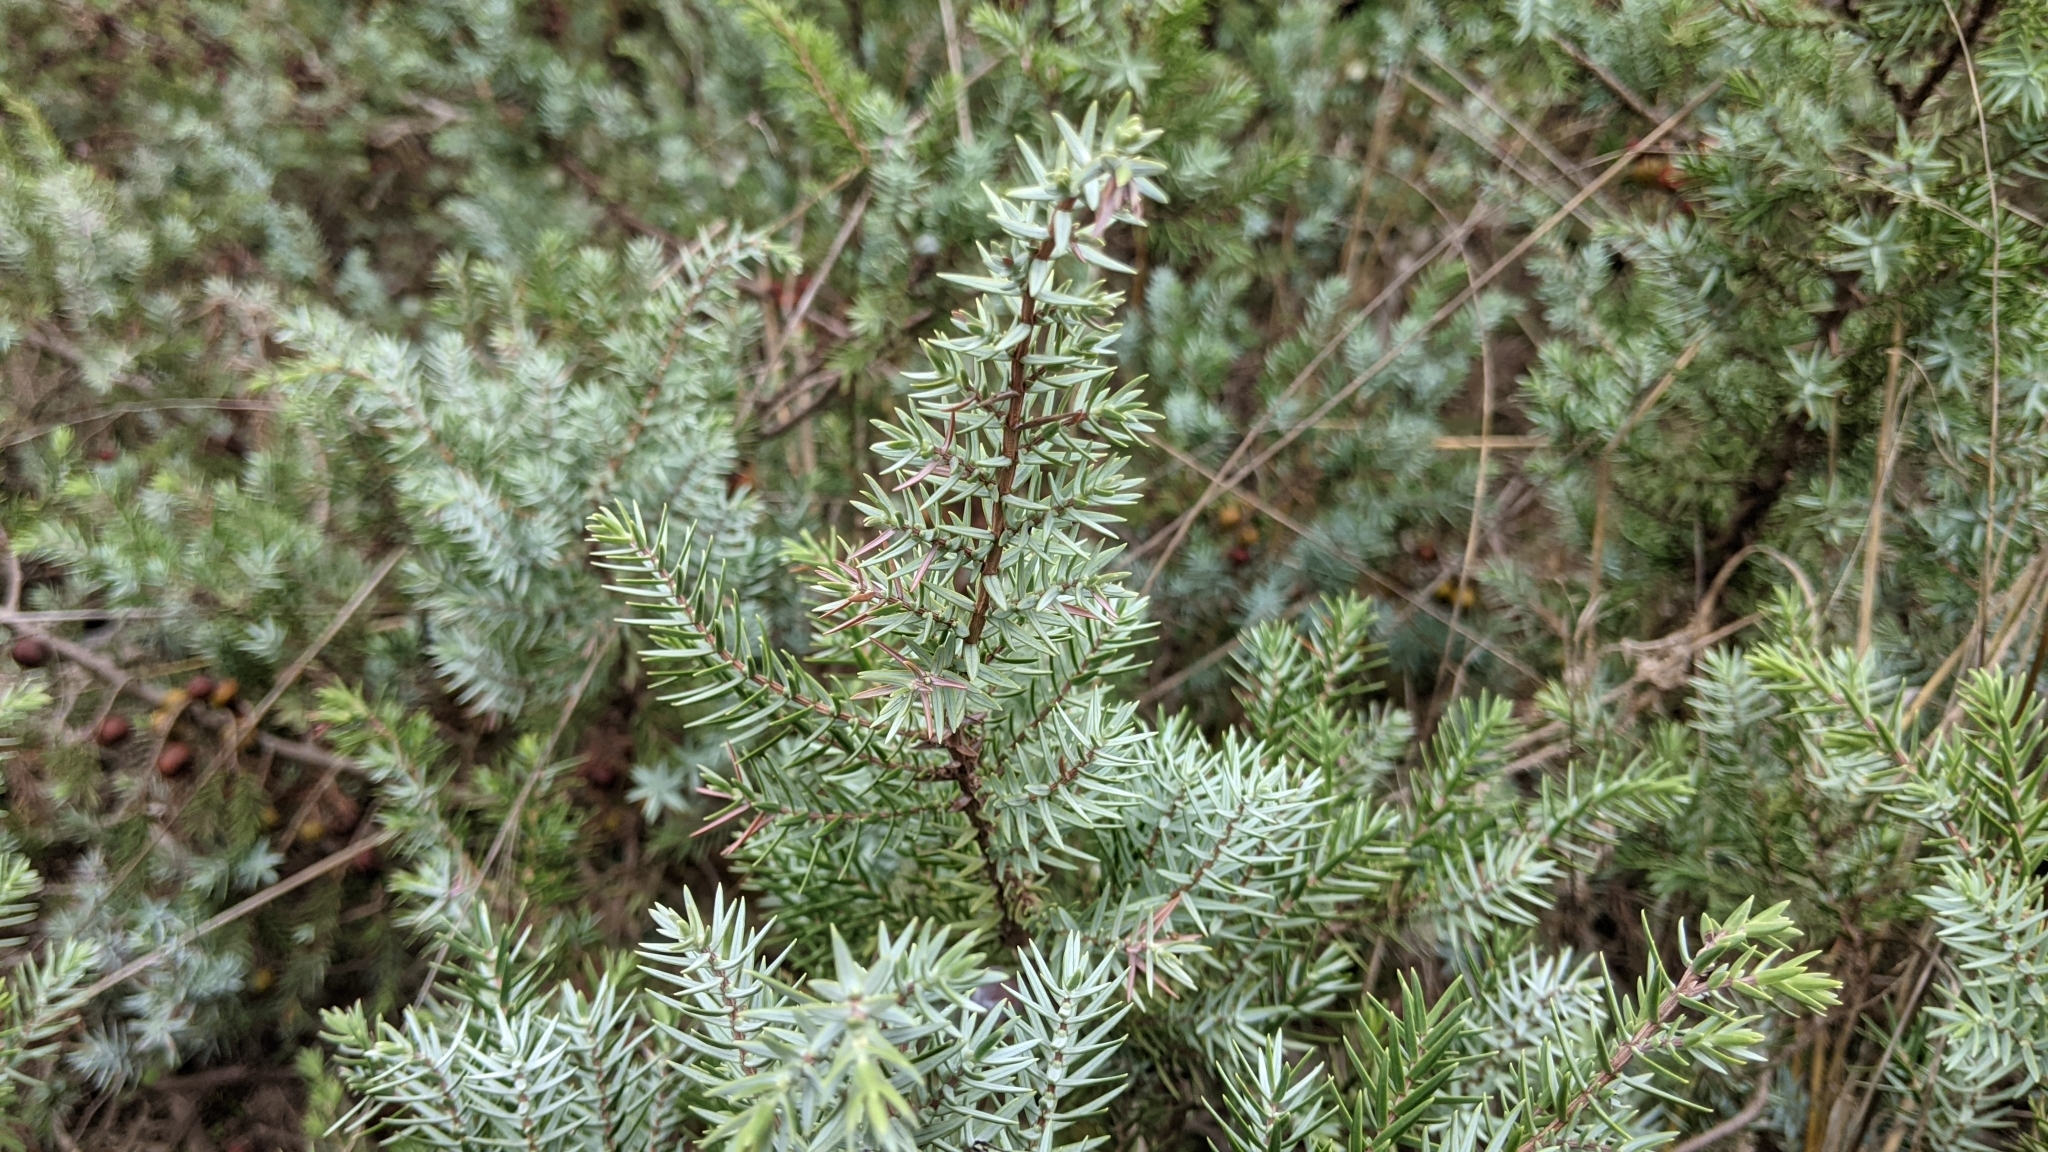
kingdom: Plantae
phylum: Tracheophyta
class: Pinopsida
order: Pinales
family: Cupressaceae
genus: Juniperus
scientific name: Juniperus oxycedrus
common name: Prickly juniper
